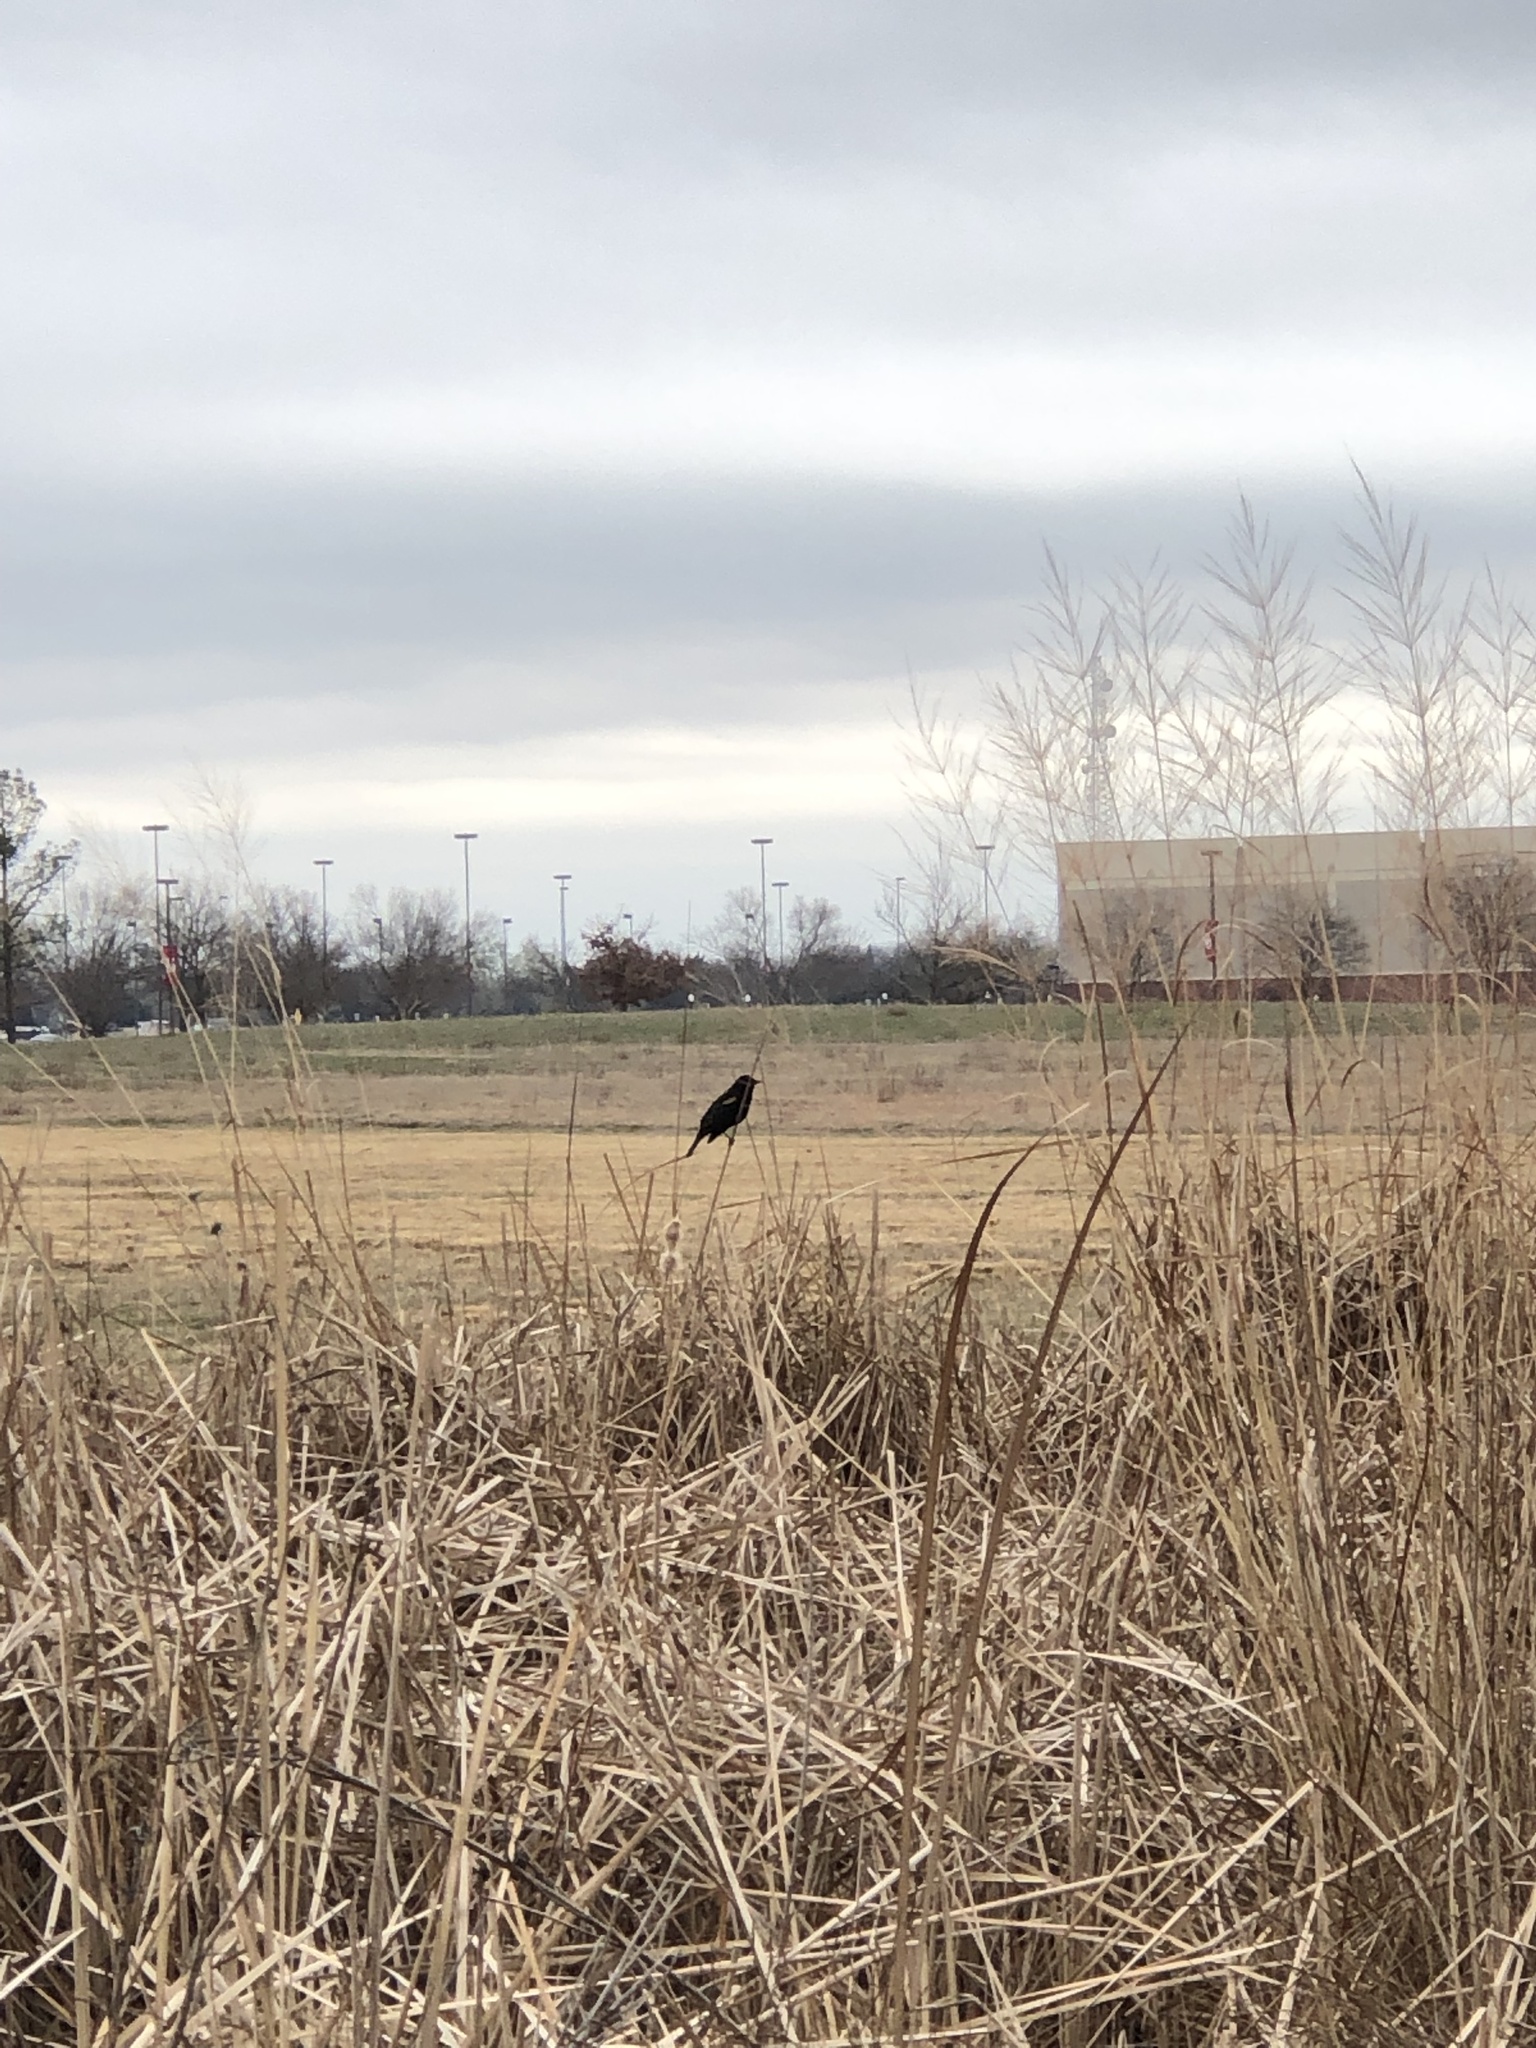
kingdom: Animalia
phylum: Chordata
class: Aves
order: Passeriformes
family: Icteridae
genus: Agelaius
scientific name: Agelaius phoeniceus
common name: Red-winged blackbird
